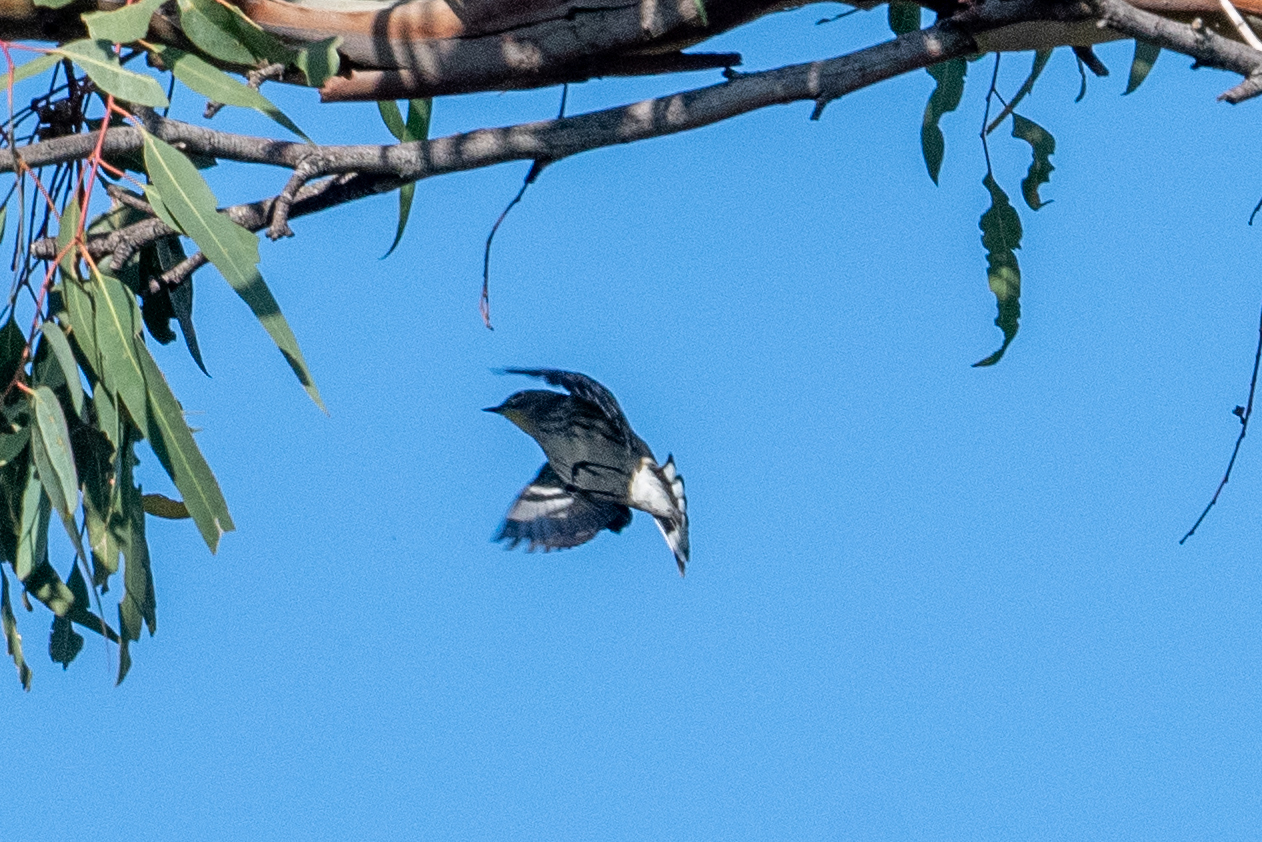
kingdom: Animalia
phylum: Chordata
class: Aves
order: Passeriformes
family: Parulidae
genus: Setophaga
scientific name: Setophaga coronata
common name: Myrtle warbler
